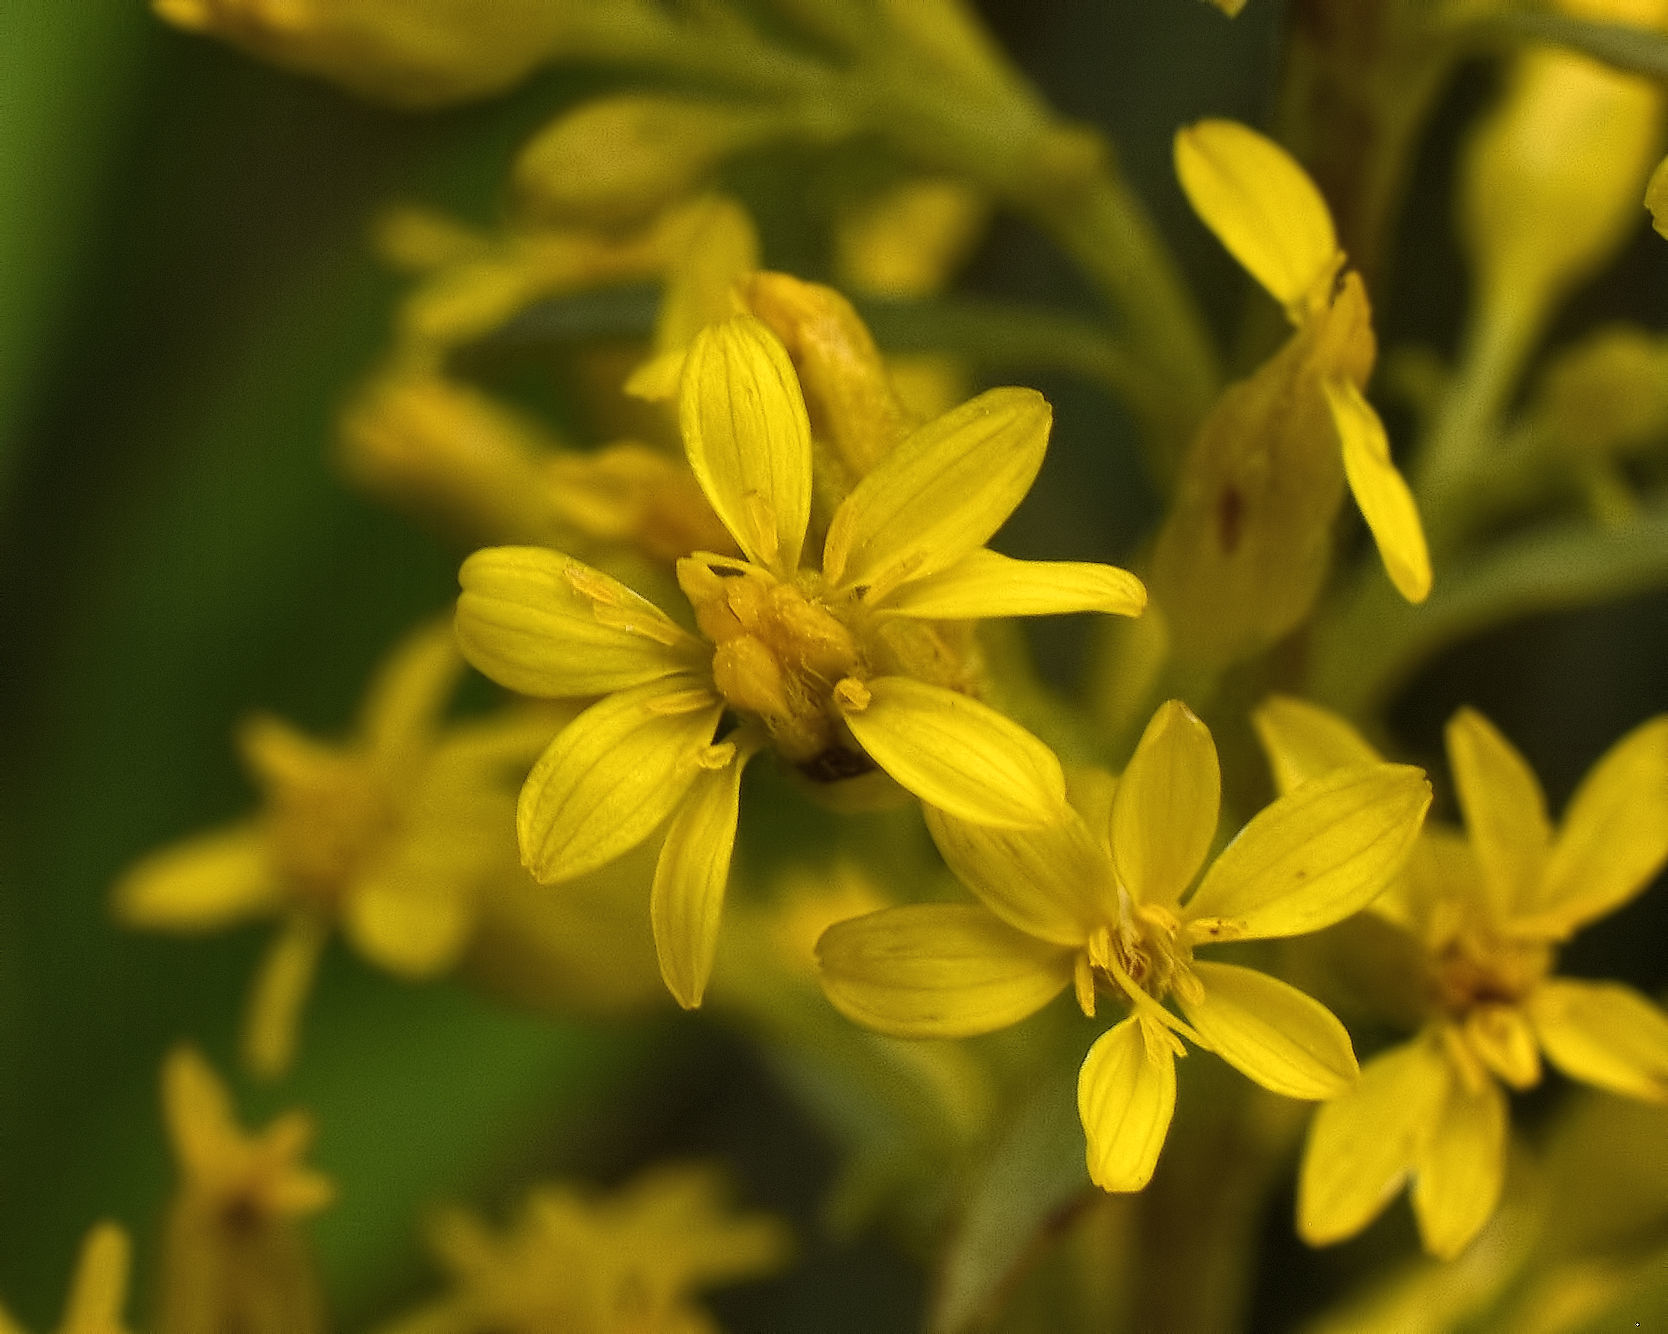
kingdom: Plantae
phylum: Tracheophyta
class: Magnoliopsida
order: Asterales
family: Asteraceae
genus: Solidago
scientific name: Solidago rigidiuscula
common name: Stiff-leaved showy goldenrod
